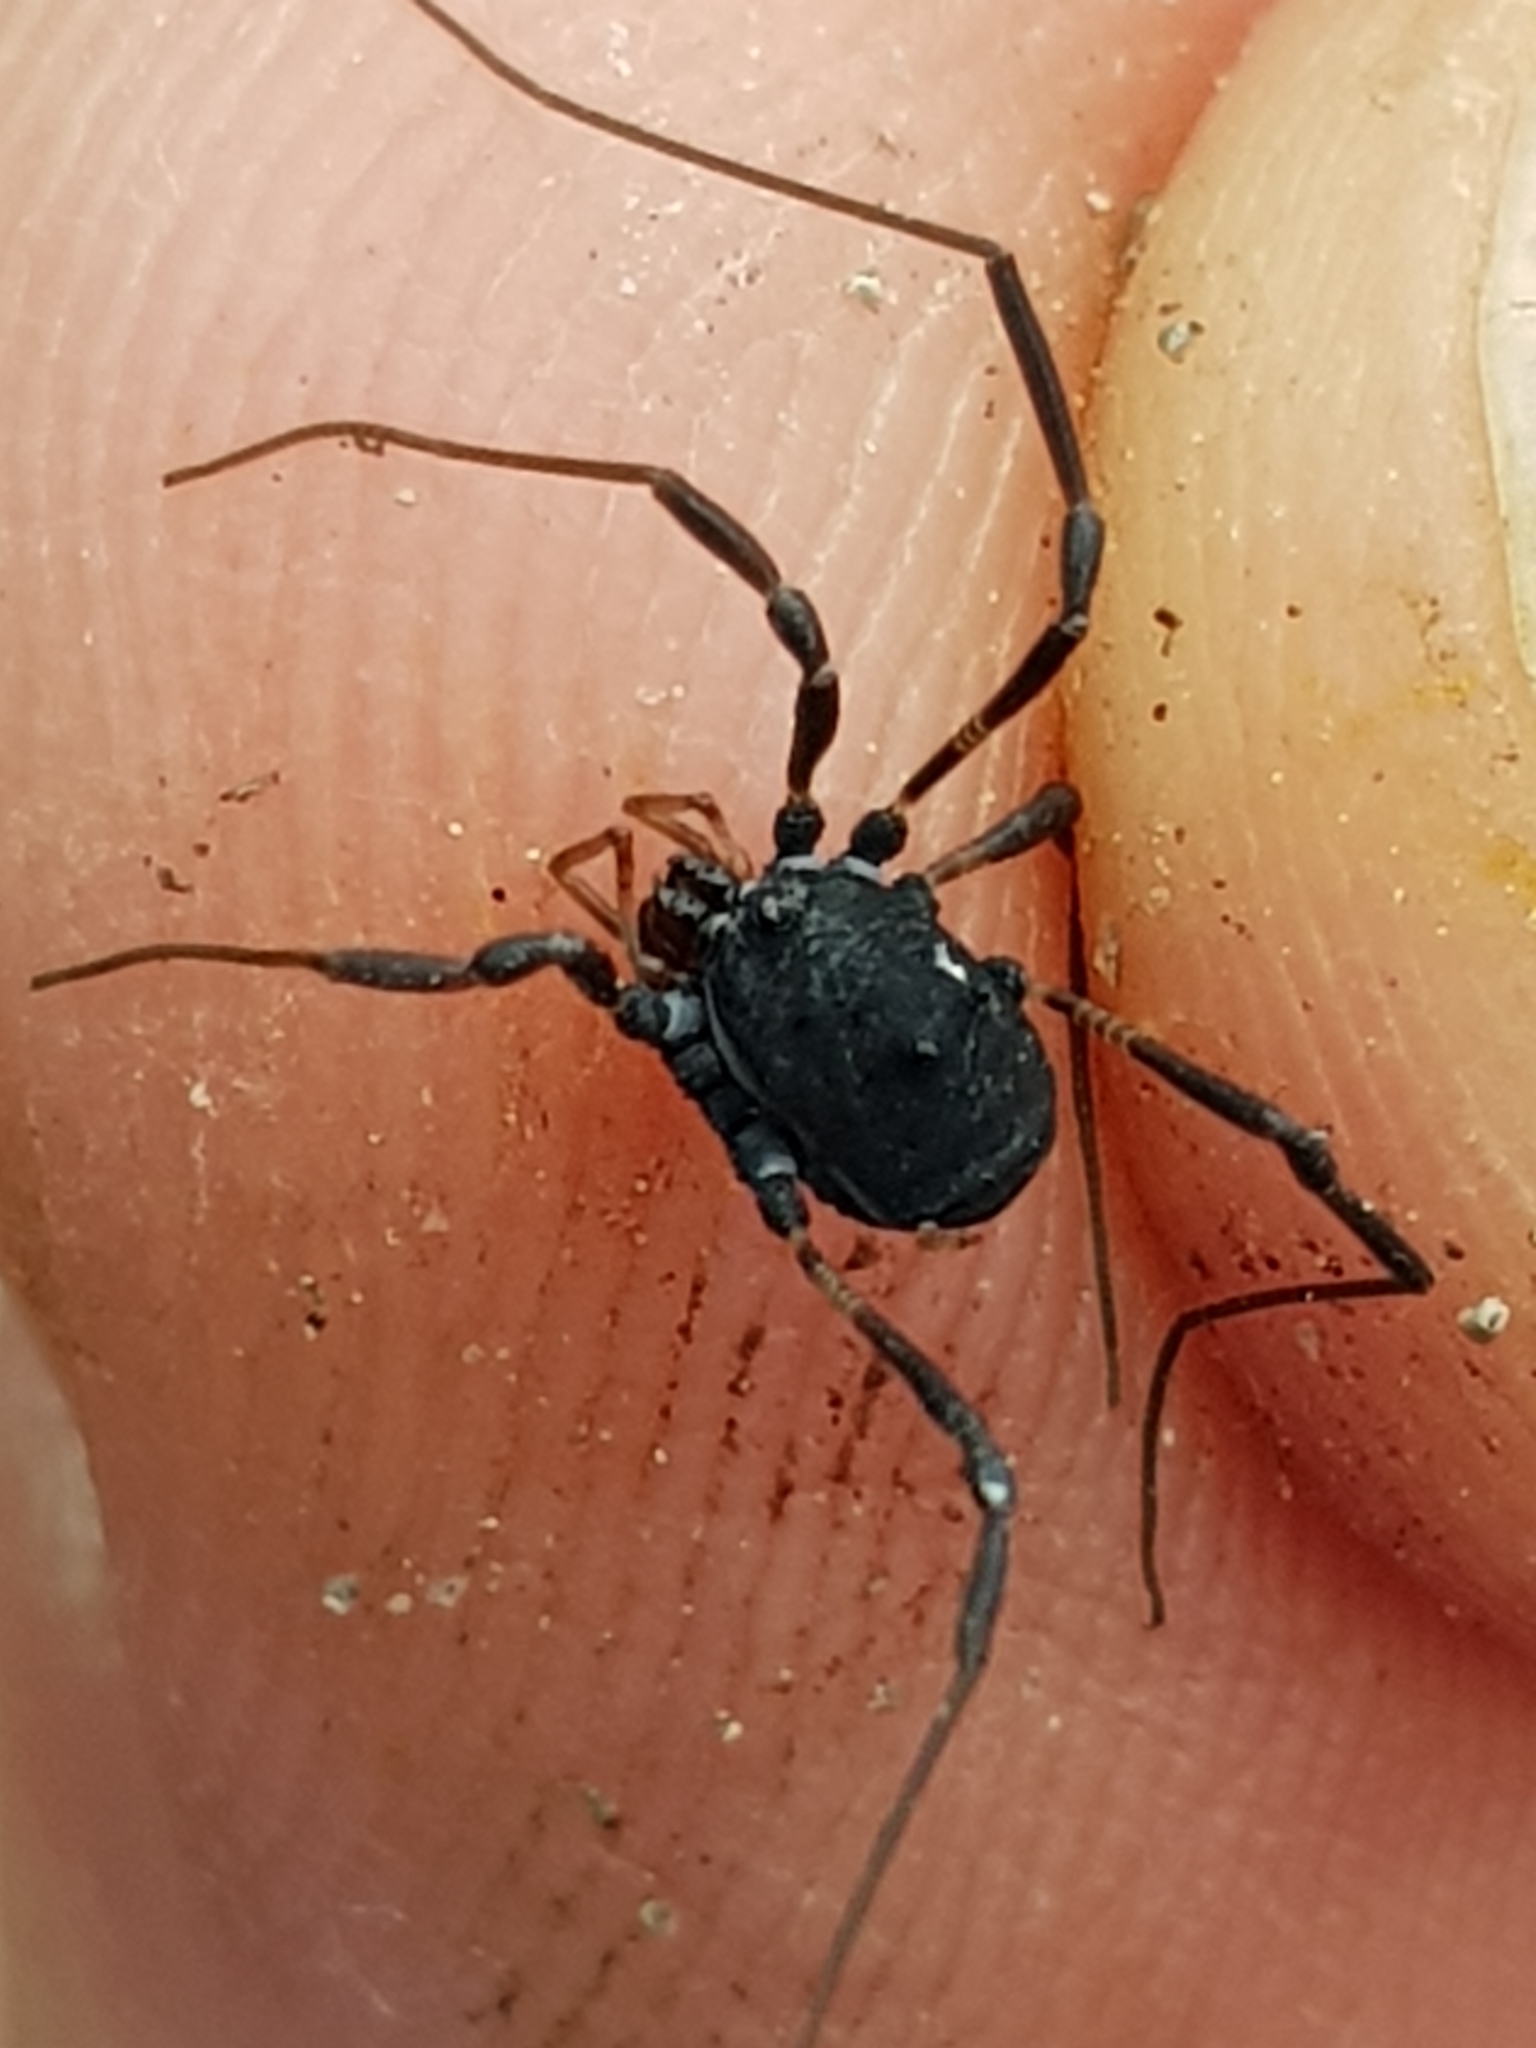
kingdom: Animalia
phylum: Arthropoda
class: Arachnida
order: Opiliones
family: Nemastomatidae
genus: Paranemastoma
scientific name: Paranemastoma bicuspidatum
